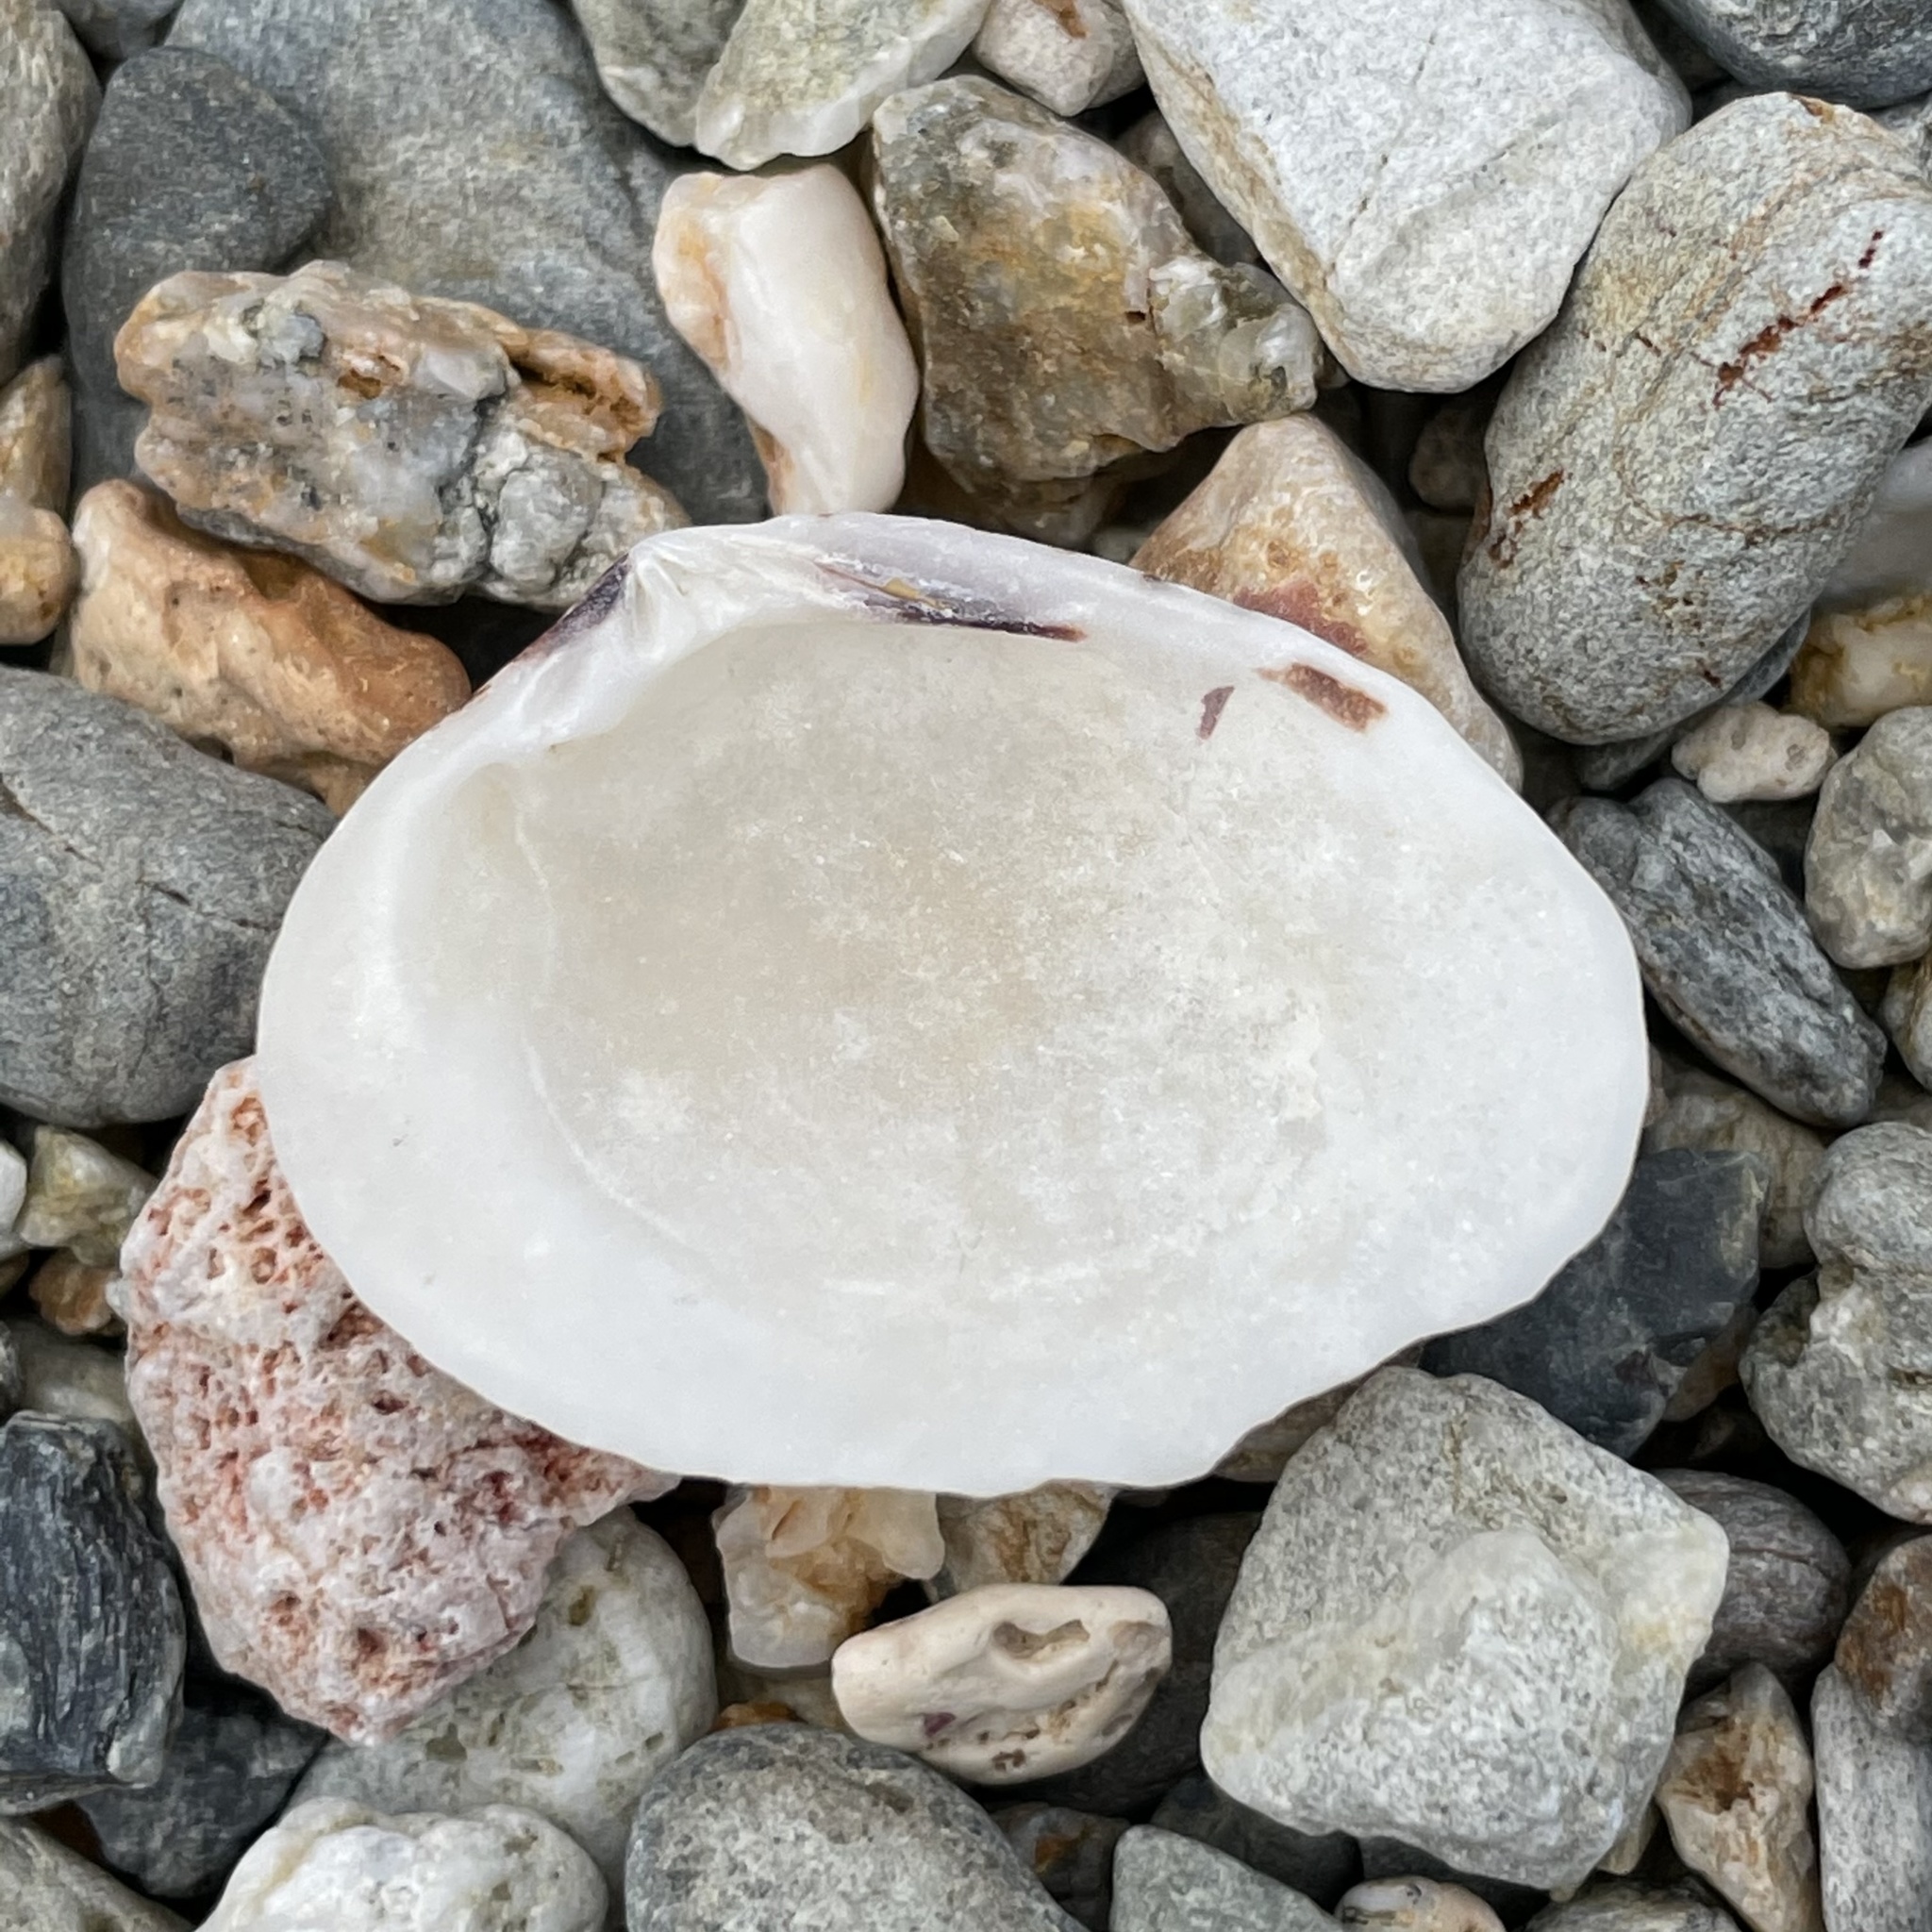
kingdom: Animalia
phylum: Mollusca
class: Bivalvia
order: Venerida
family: Veneridae
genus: Gafrarium
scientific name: Gafrarium pectinatum
